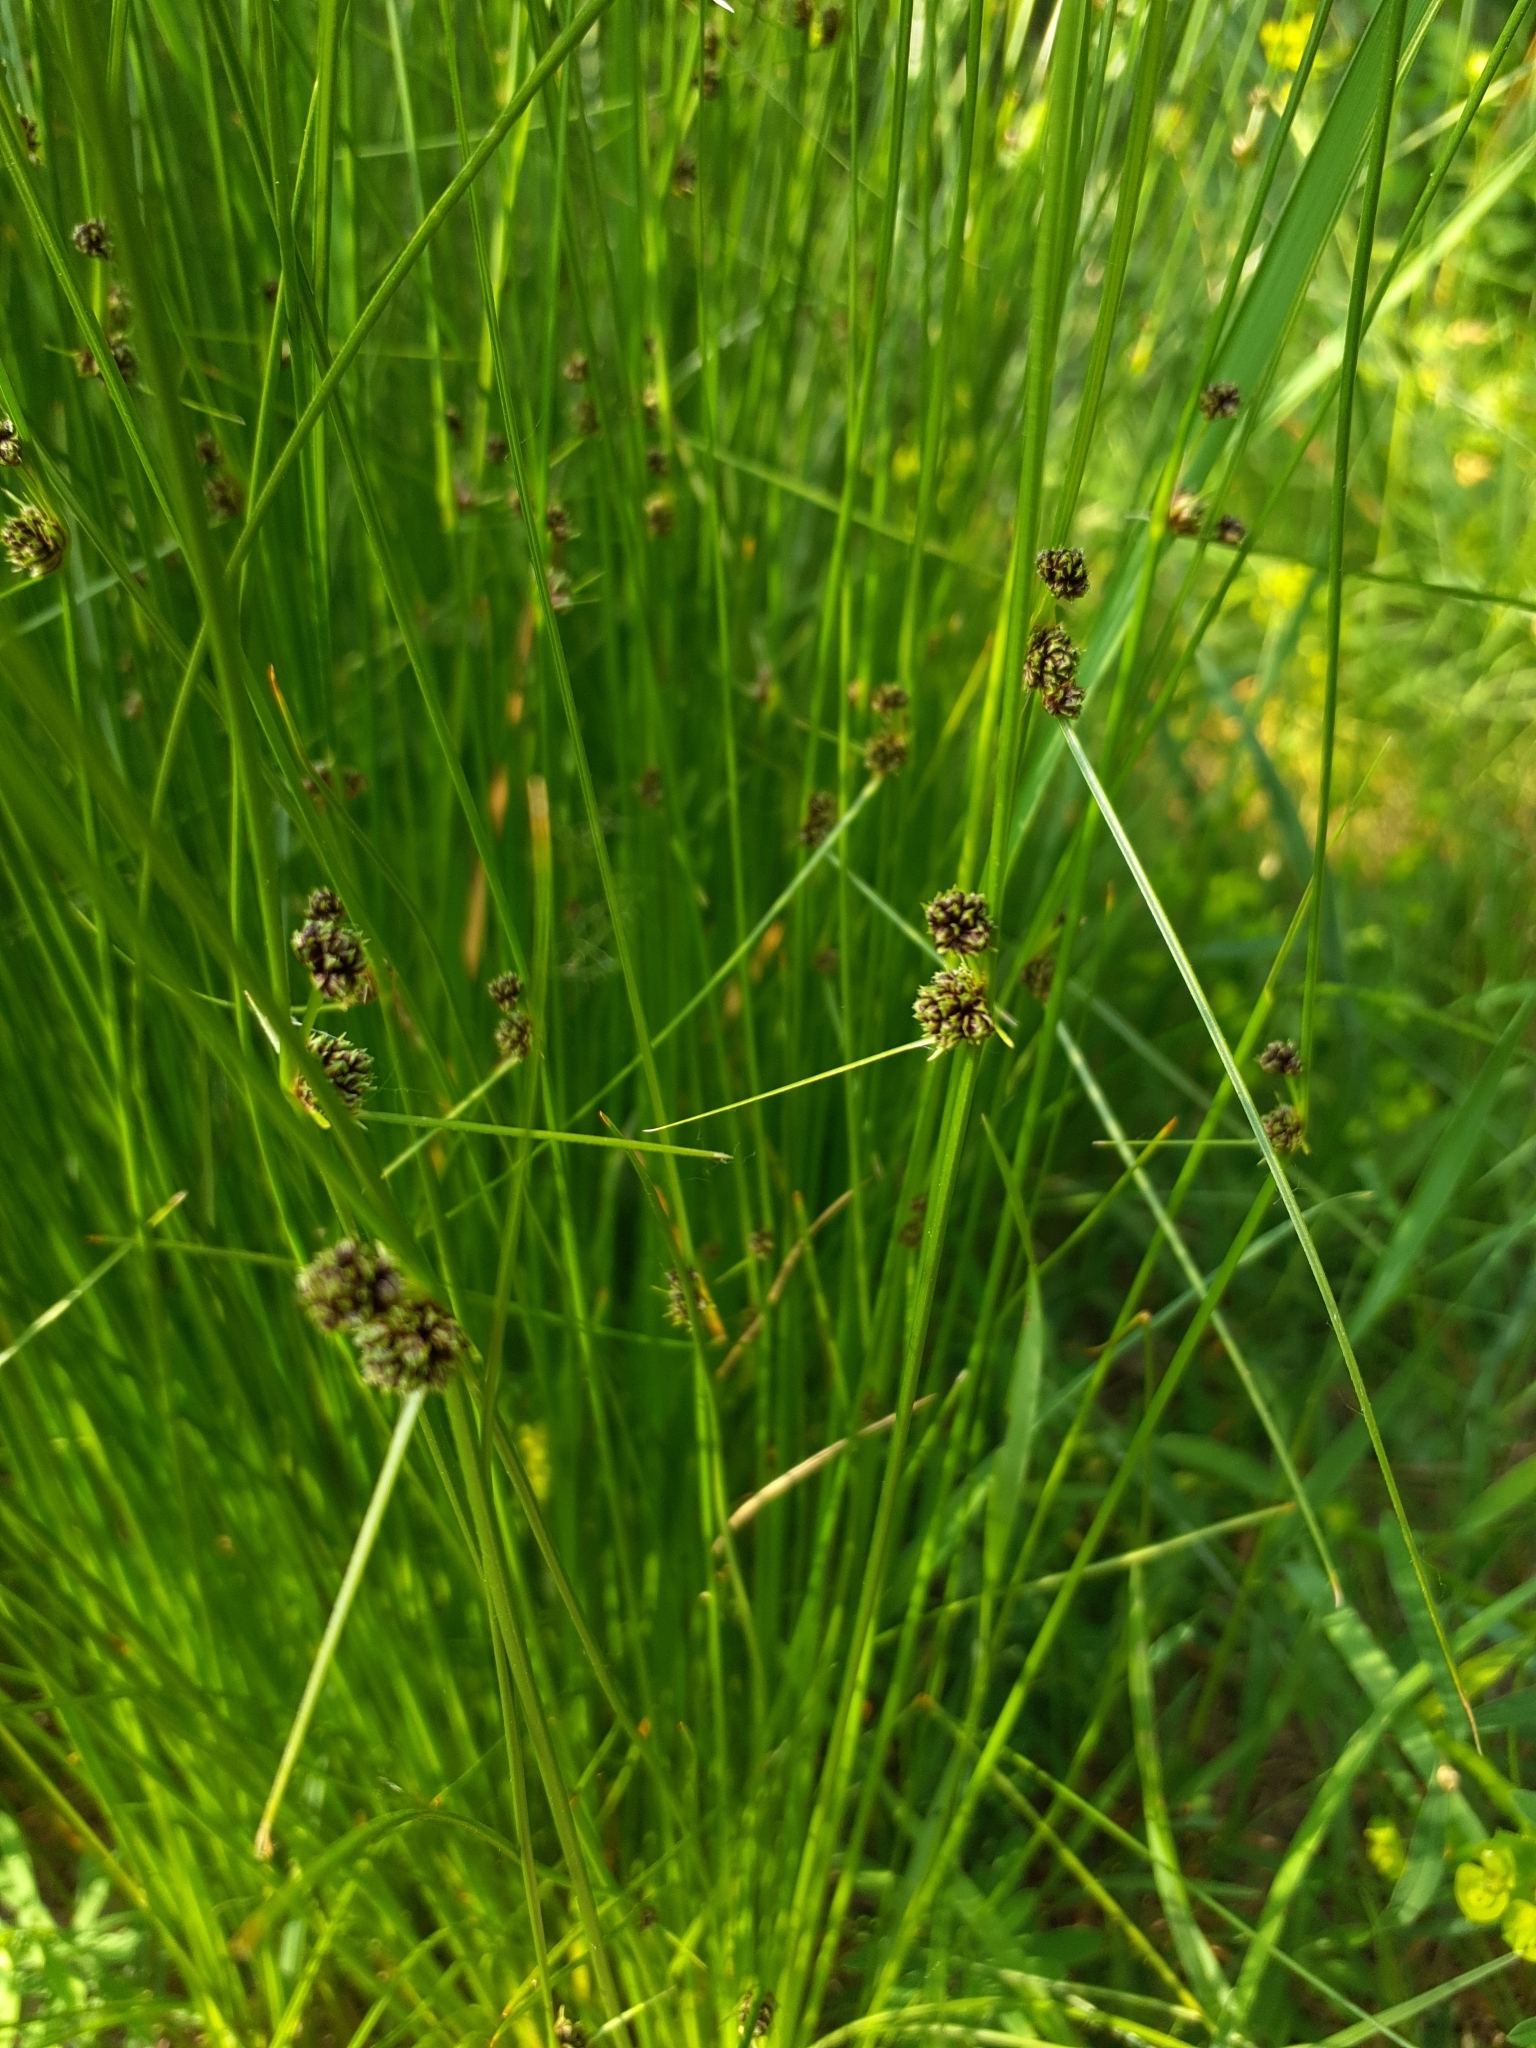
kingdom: Plantae
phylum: Tracheophyta
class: Liliopsida
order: Poales
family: Cyperaceae
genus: Scirpoides
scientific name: Scirpoides holoschoenus
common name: Round-headed club-rush
